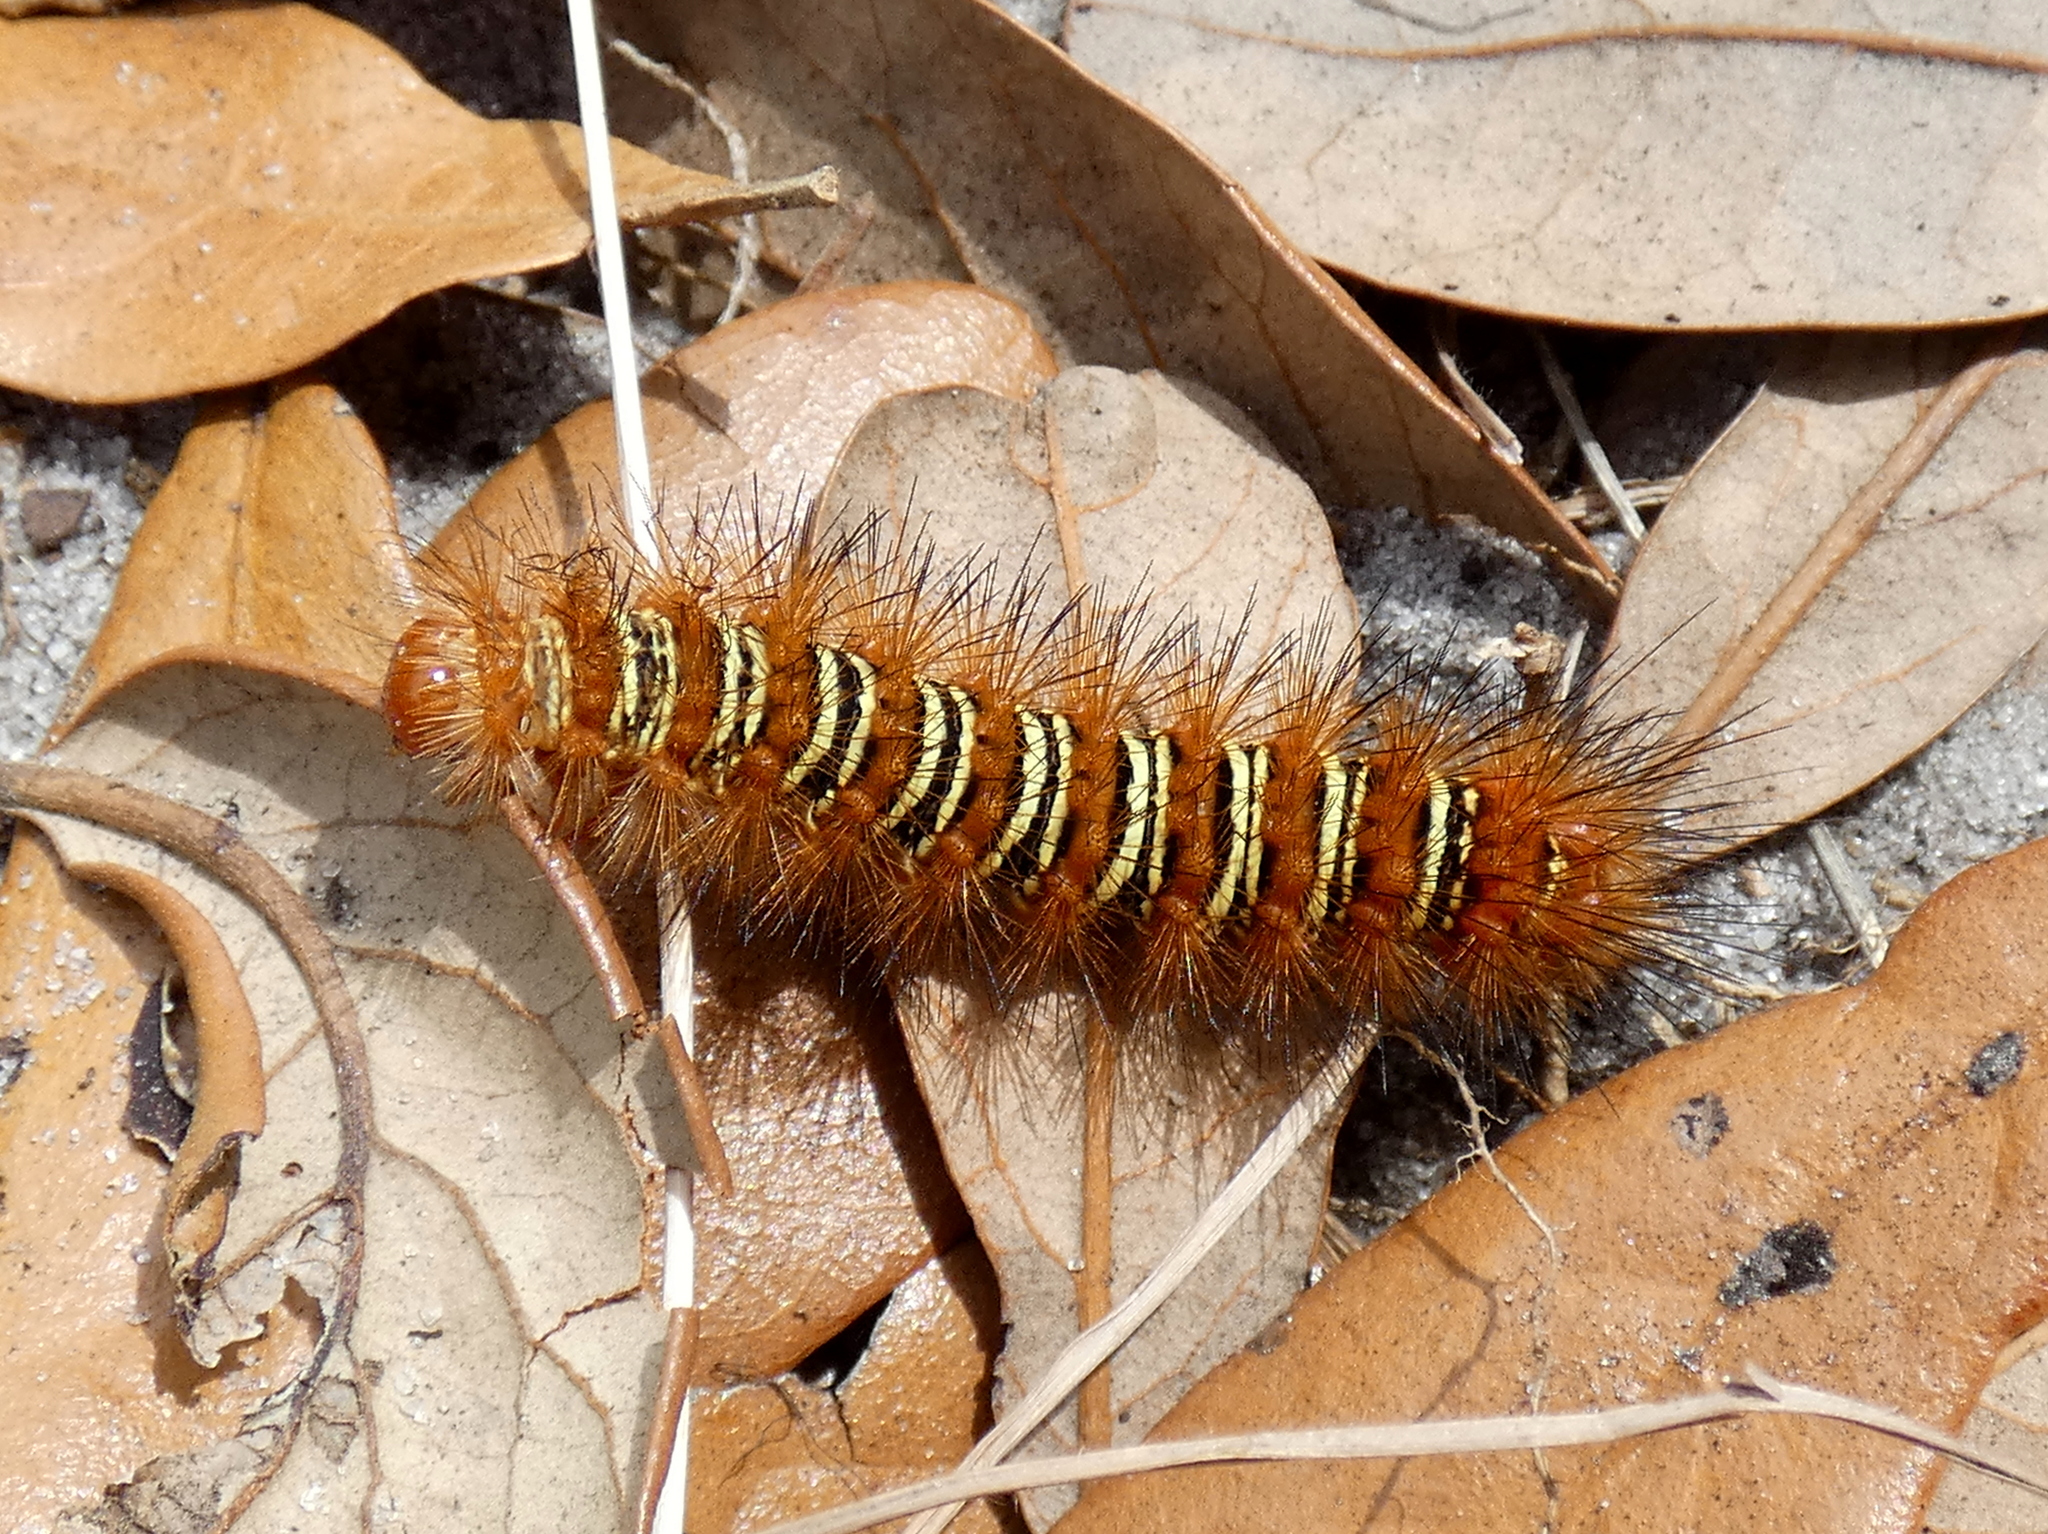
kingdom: Animalia
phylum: Arthropoda
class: Insecta
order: Lepidoptera
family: Erebidae
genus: Seirarctia
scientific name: Seirarctia echo
